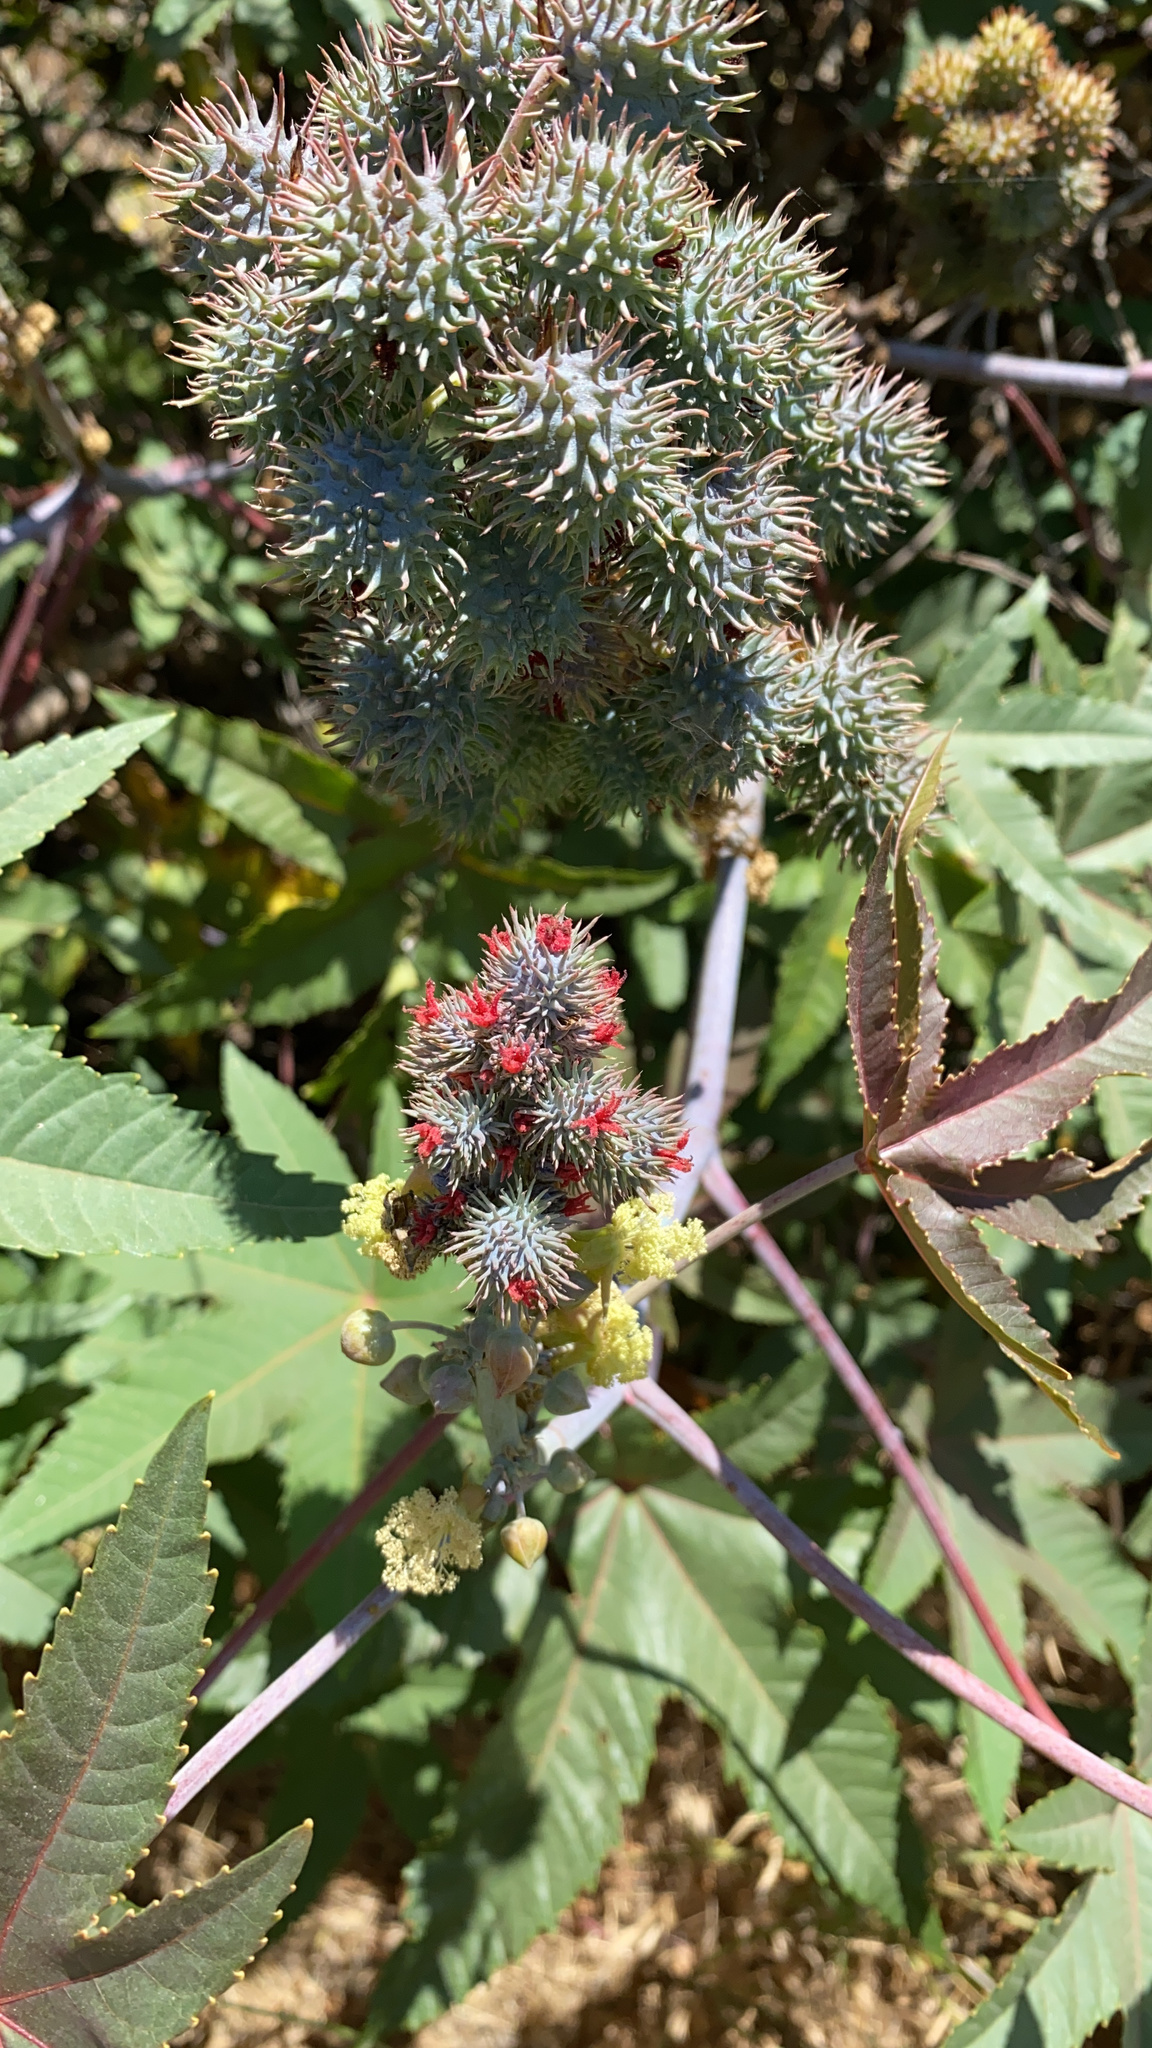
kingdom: Plantae
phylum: Tracheophyta
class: Magnoliopsida
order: Malpighiales
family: Euphorbiaceae
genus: Ricinus
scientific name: Ricinus communis
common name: Castor-oil-plant
